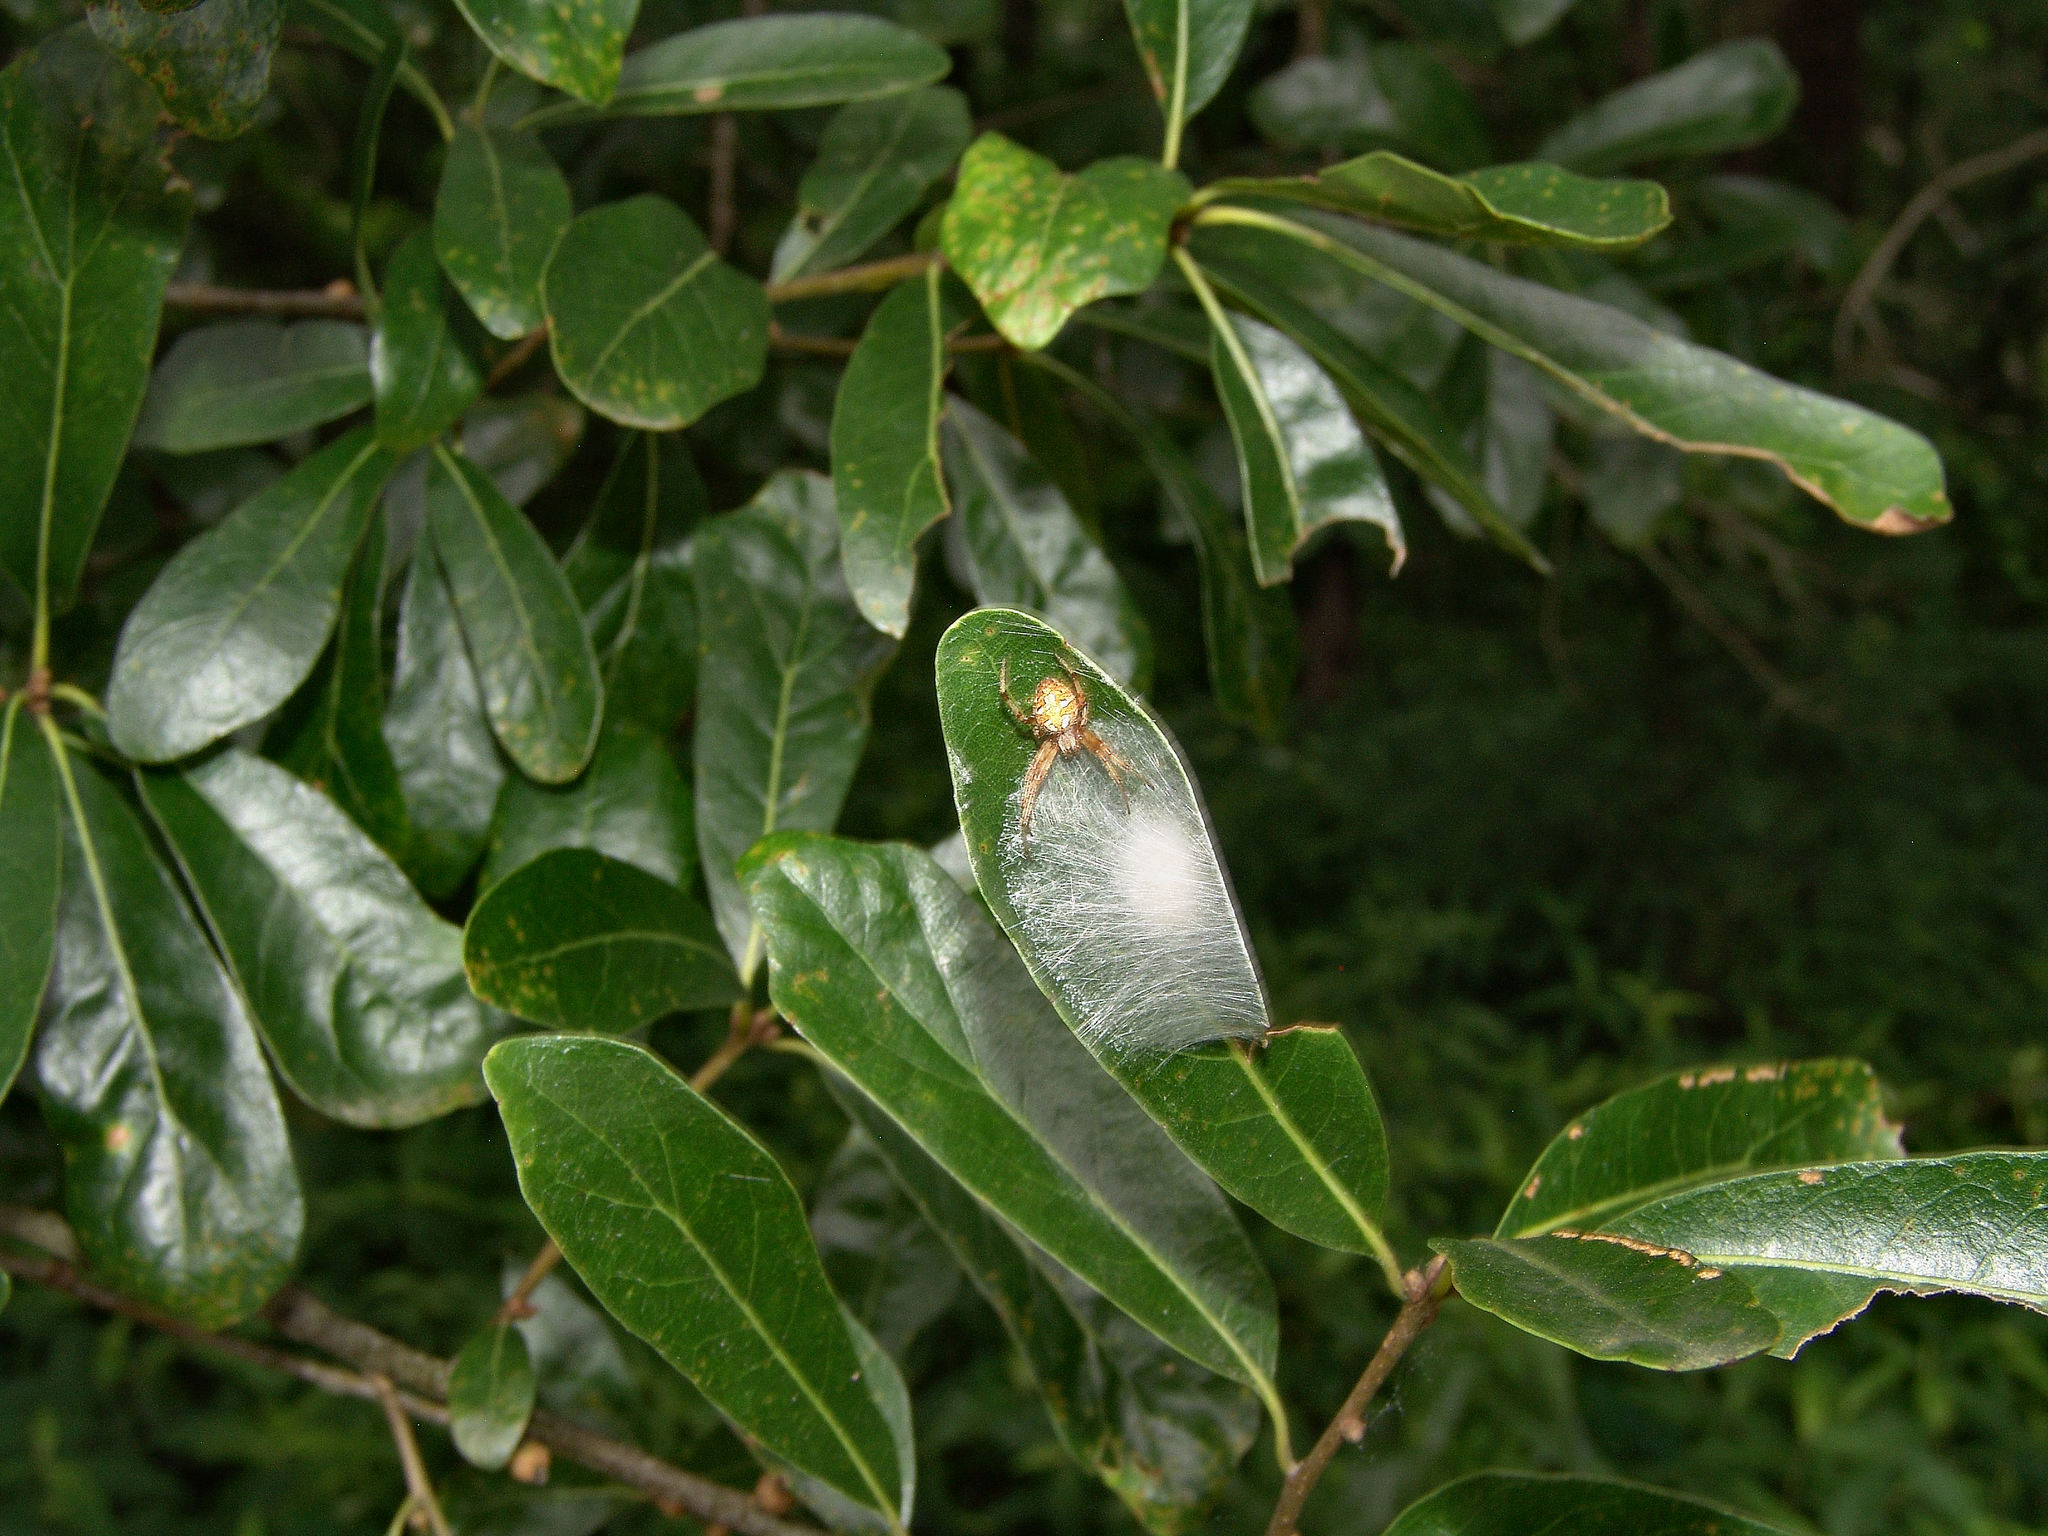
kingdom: Animalia
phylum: Arthropoda
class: Arachnida
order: Araneae
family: Araneidae
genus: Neoscona
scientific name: Neoscona arabesca
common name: Orb weavers
